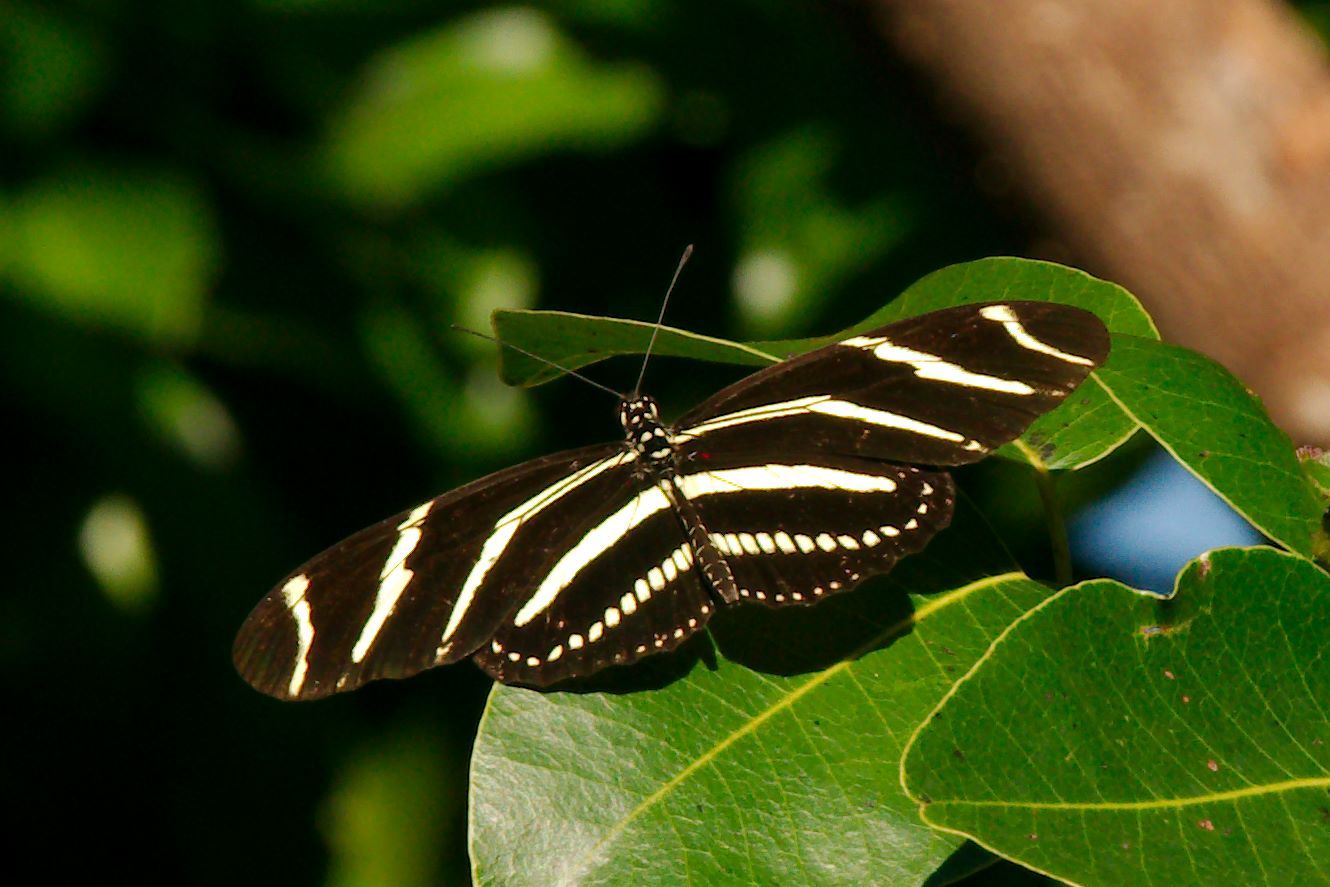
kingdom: Animalia
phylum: Arthropoda
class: Insecta
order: Lepidoptera
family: Nymphalidae
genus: Heliconius
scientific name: Heliconius charithonia
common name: Zebra long wing
